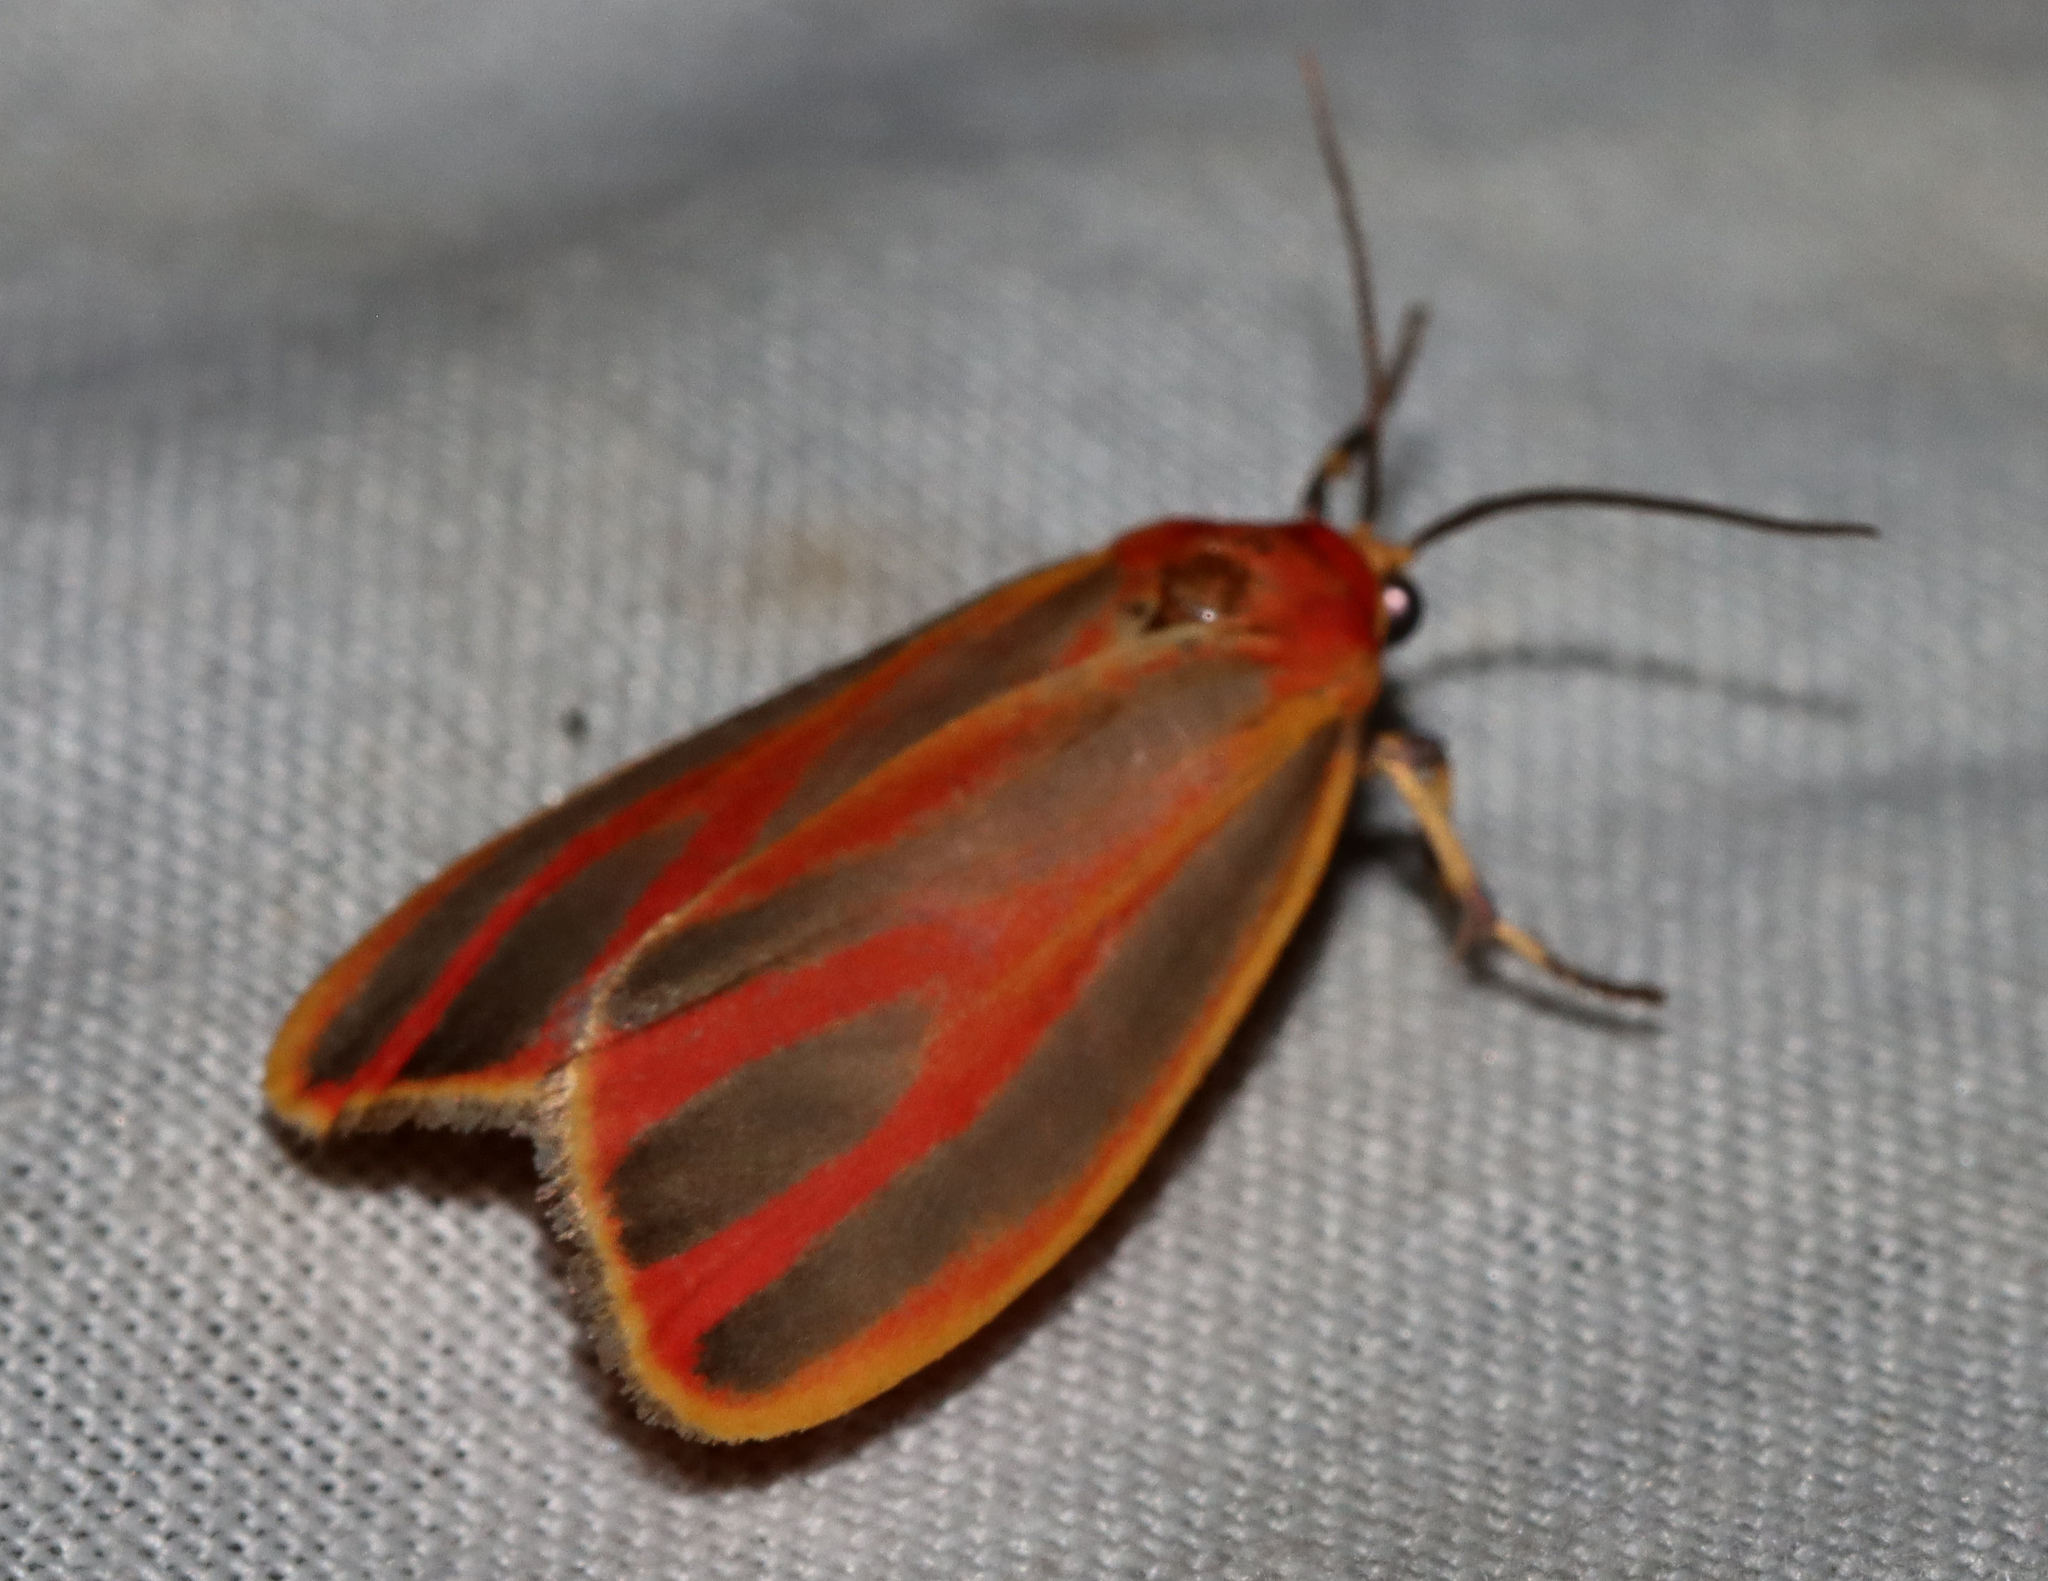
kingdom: Animalia
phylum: Arthropoda
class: Insecta
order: Lepidoptera
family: Erebidae
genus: Hypoprepia
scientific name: Hypoprepia fucosa
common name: Painted lichen moth
